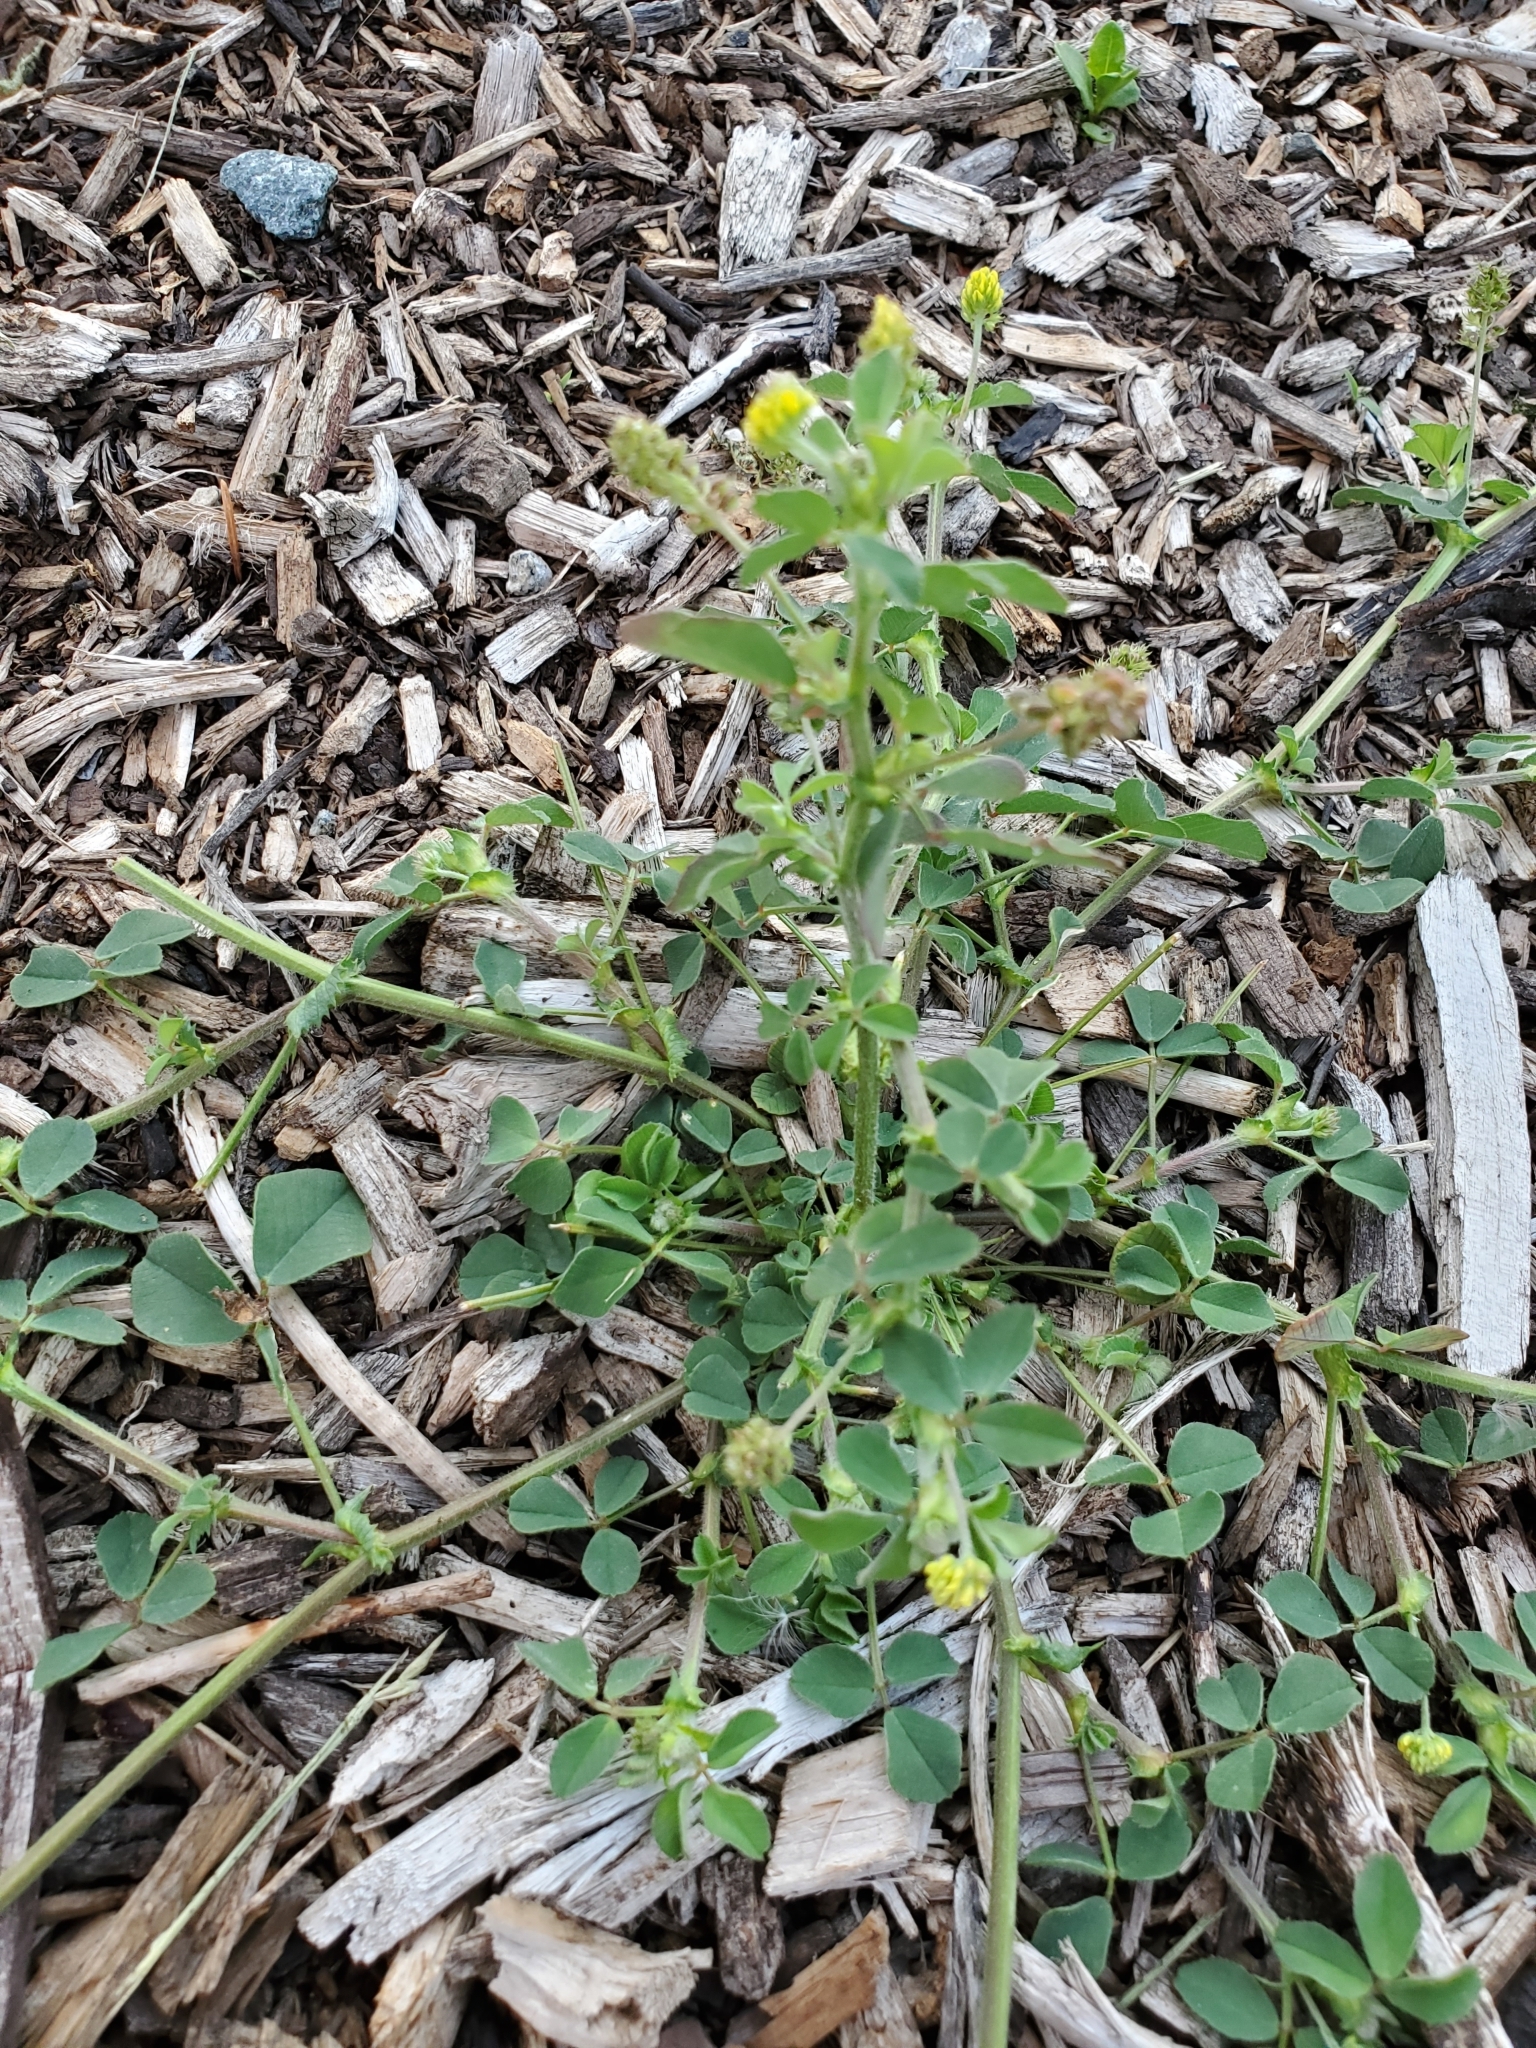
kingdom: Plantae
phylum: Tracheophyta
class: Magnoliopsida
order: Fabales
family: Fabaceae
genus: Medicago
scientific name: Medicago lupulina
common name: Black medick
